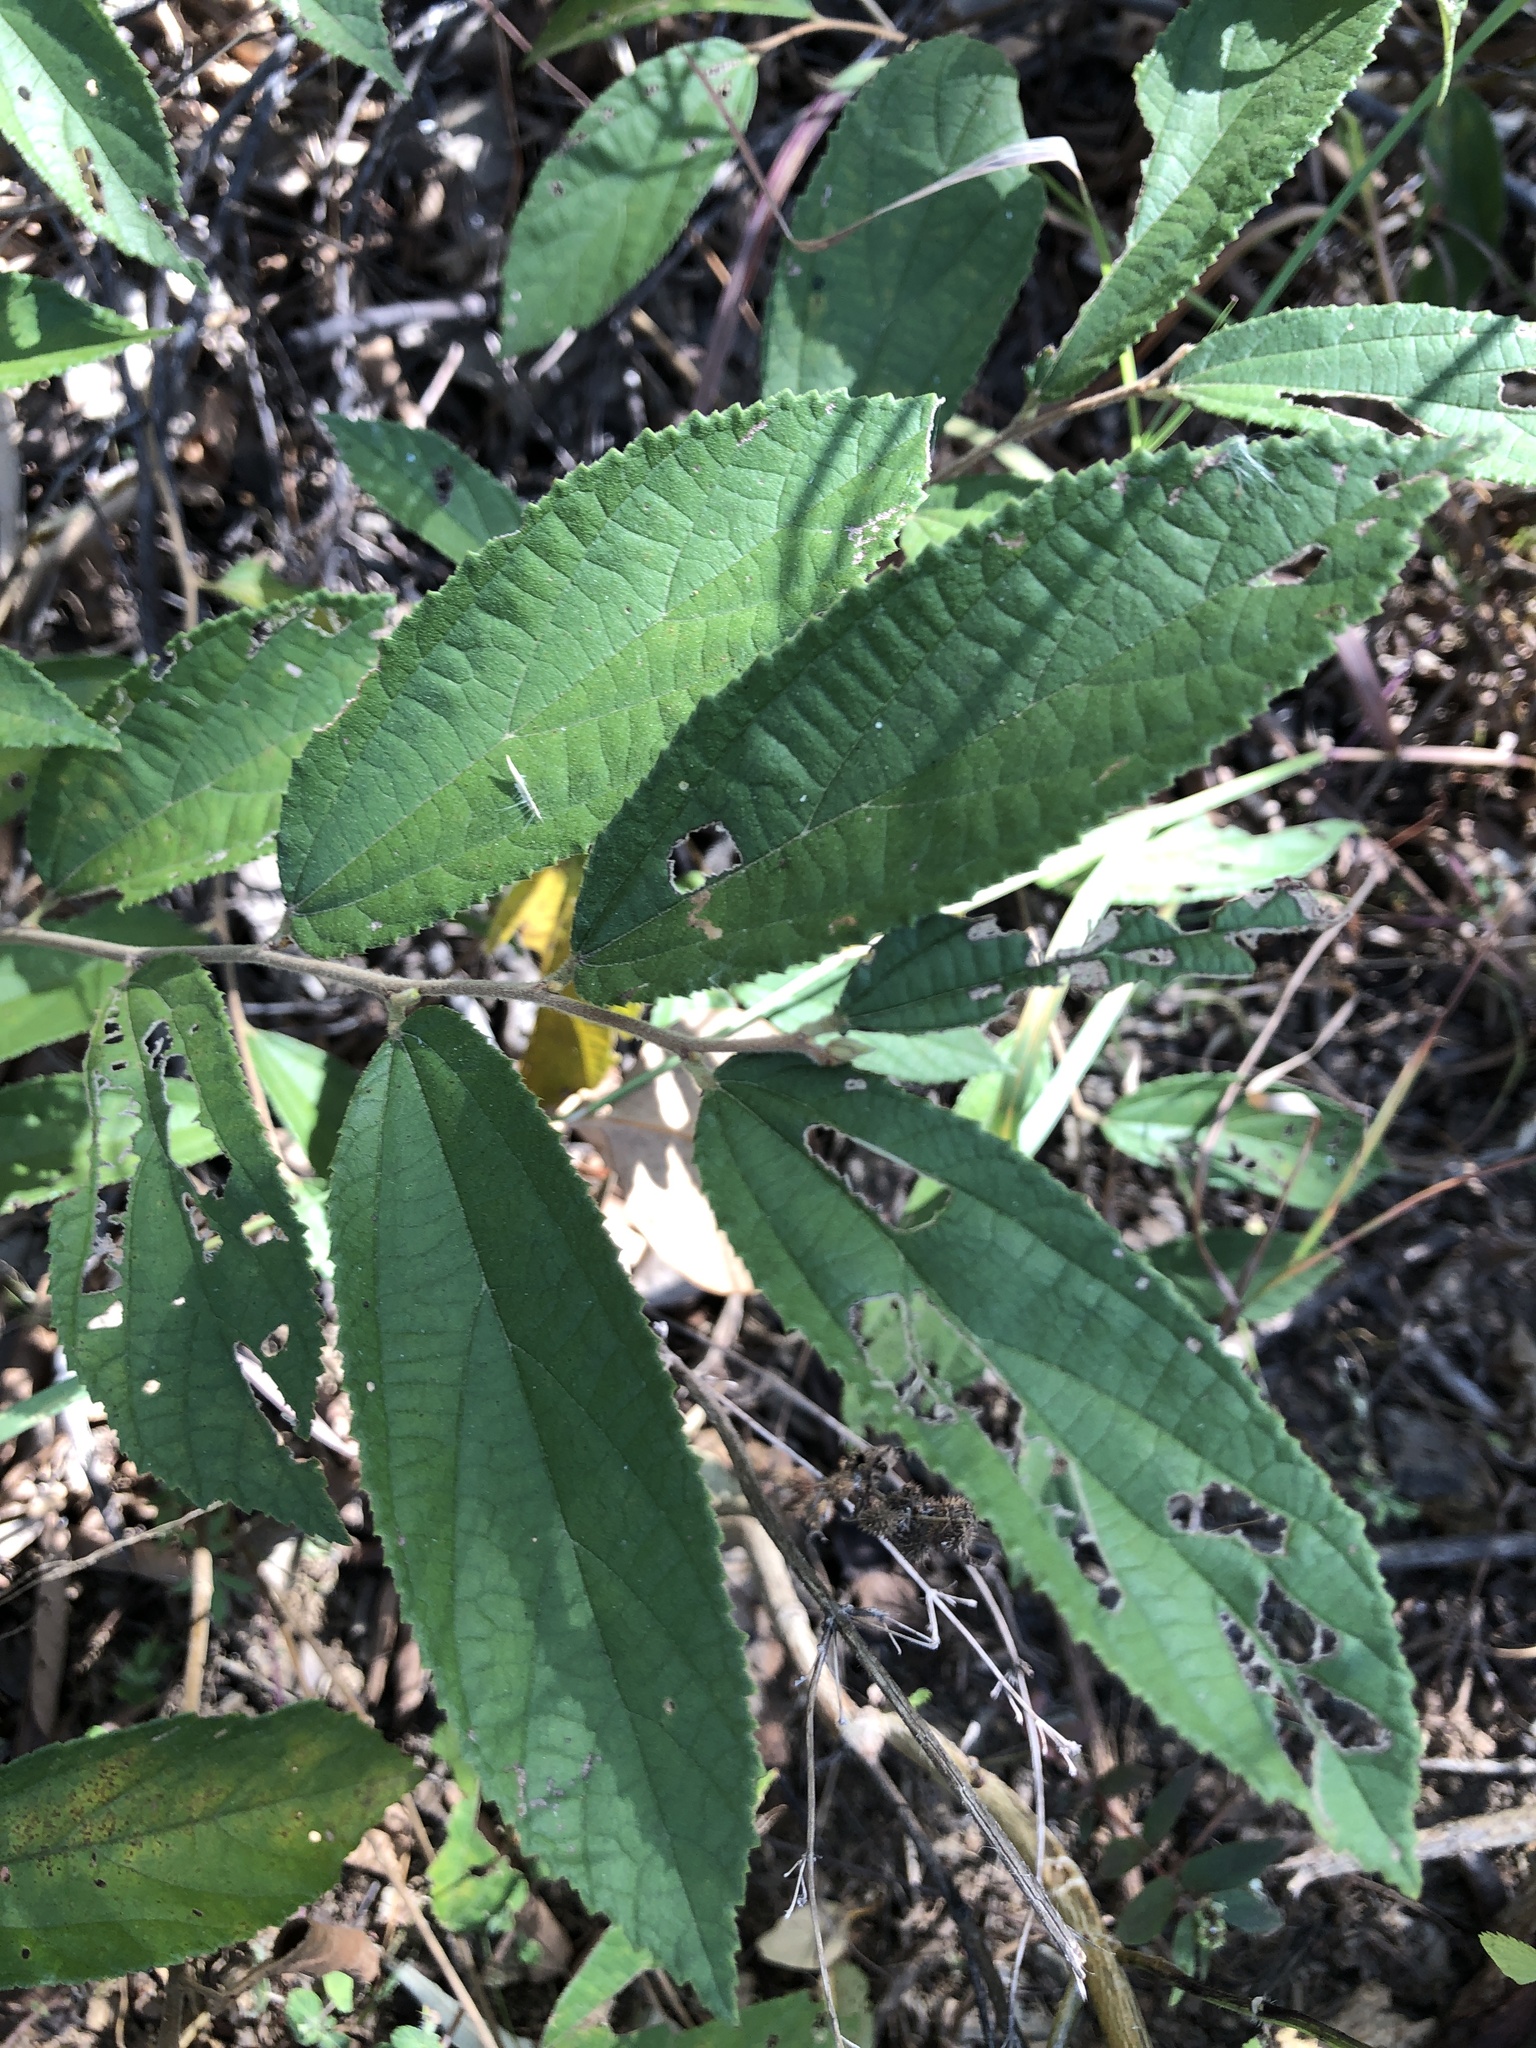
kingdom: Plantae
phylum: Tracheophyta
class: Magnoliopsida
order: Malvales
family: Malvaceae
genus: Grewia
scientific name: Grewia savannicola
